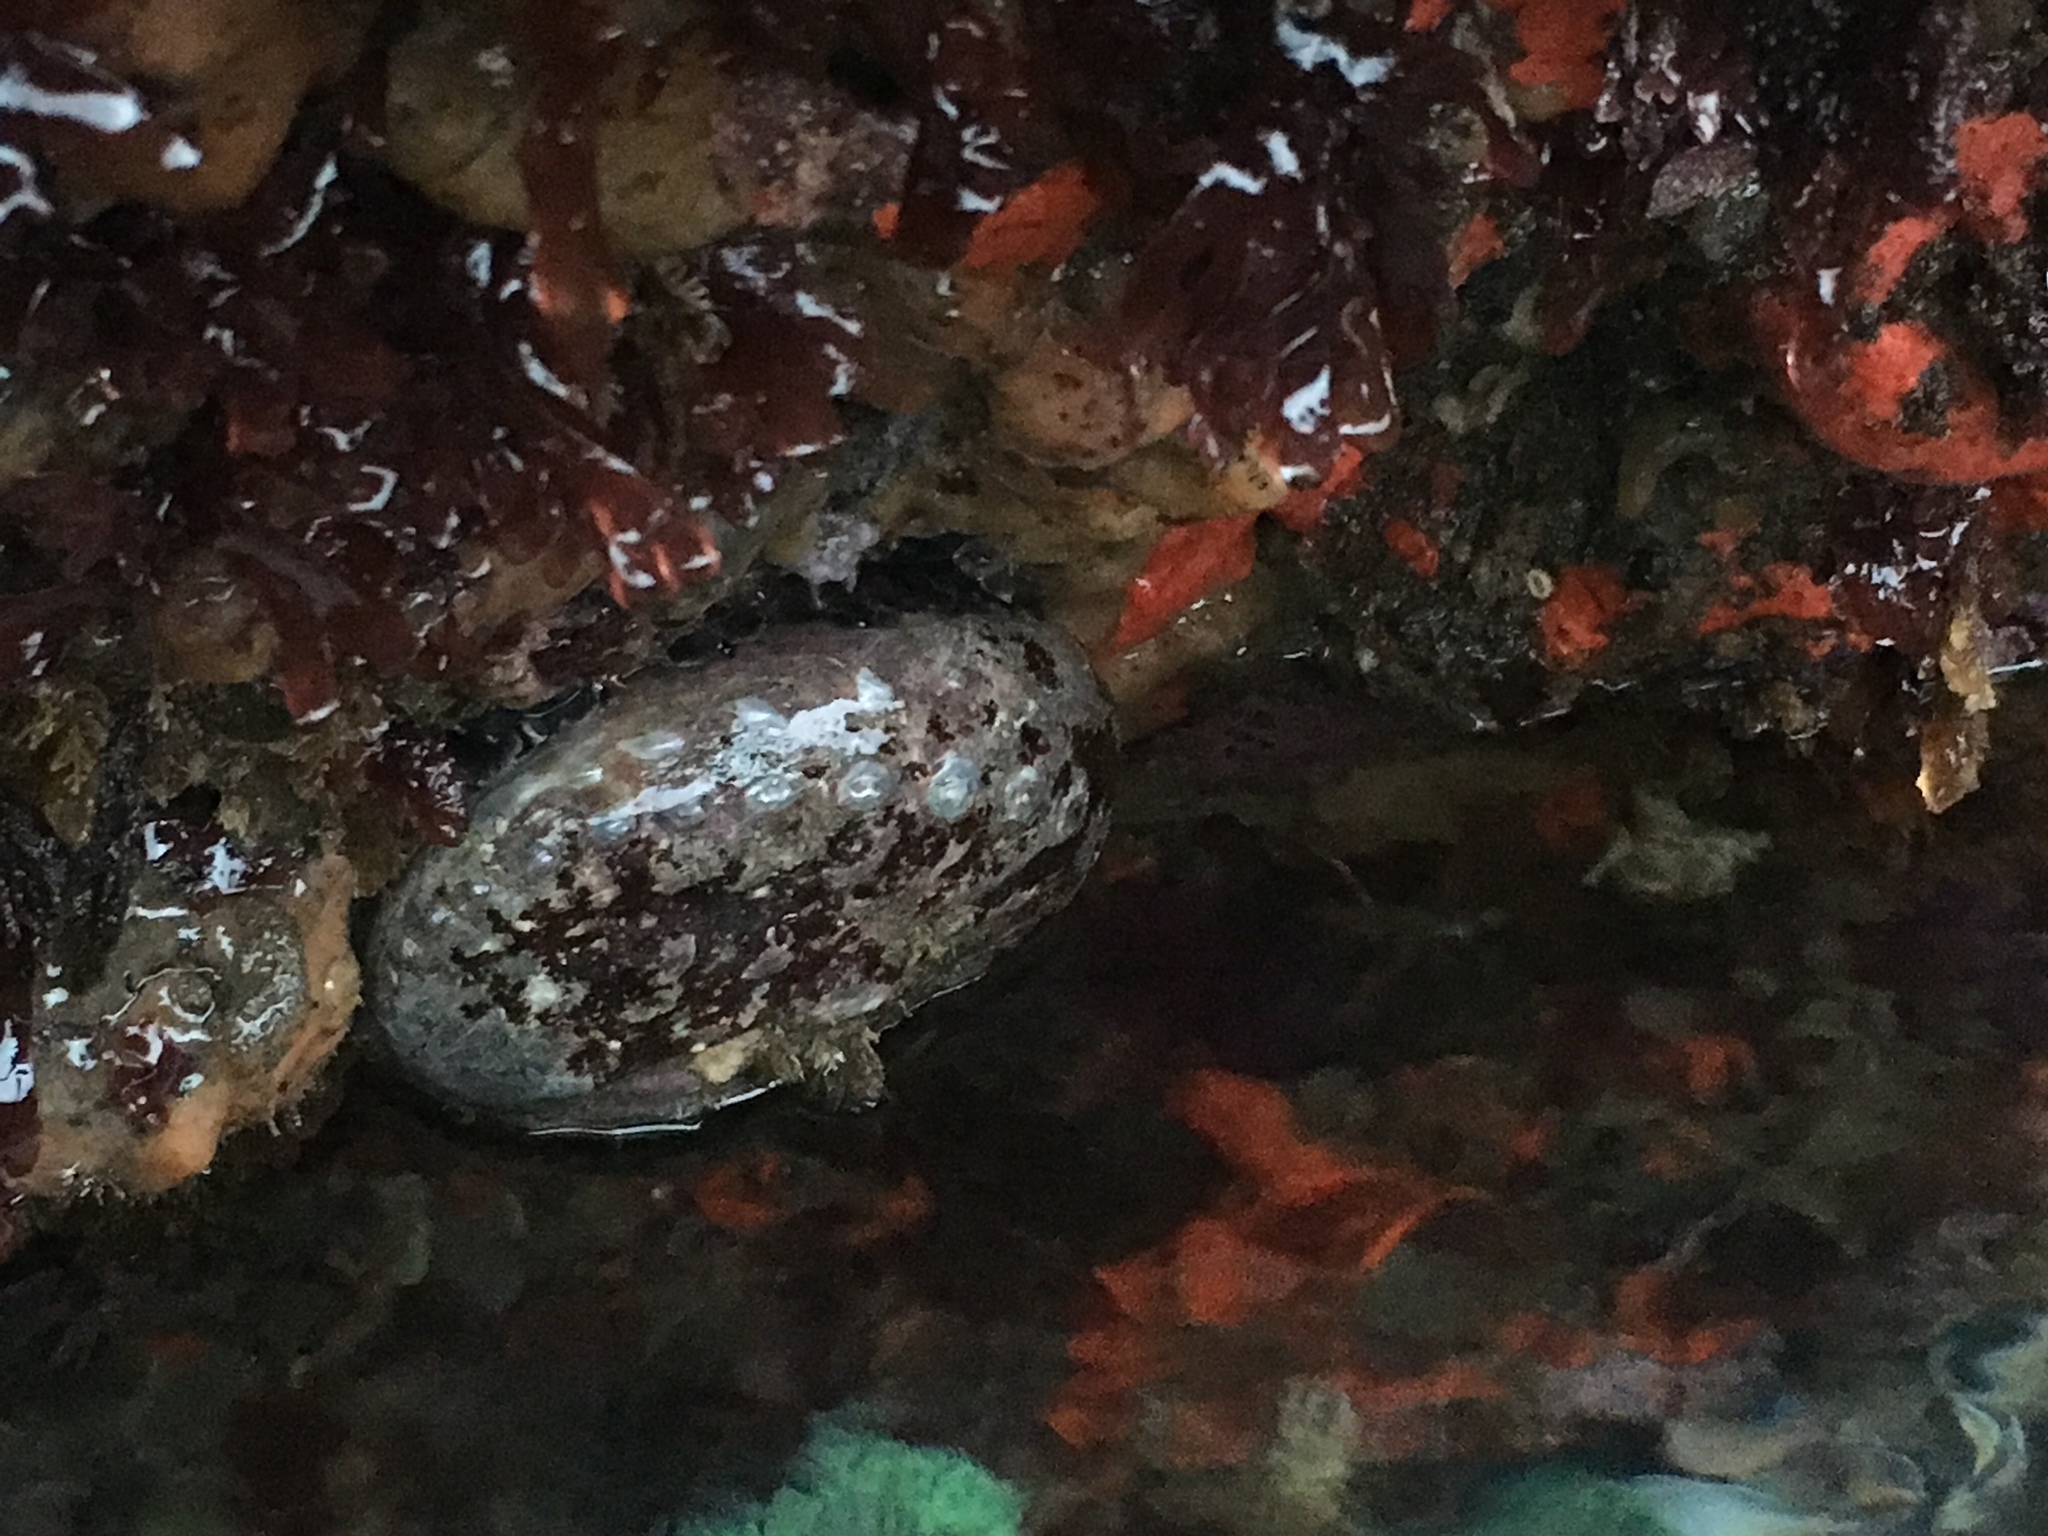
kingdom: Animalia
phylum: Mollusca
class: Gastropoda
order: Lepetellida
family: Haliotidae
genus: Haliotis
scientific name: Haliotis rufescens
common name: Red abalone
